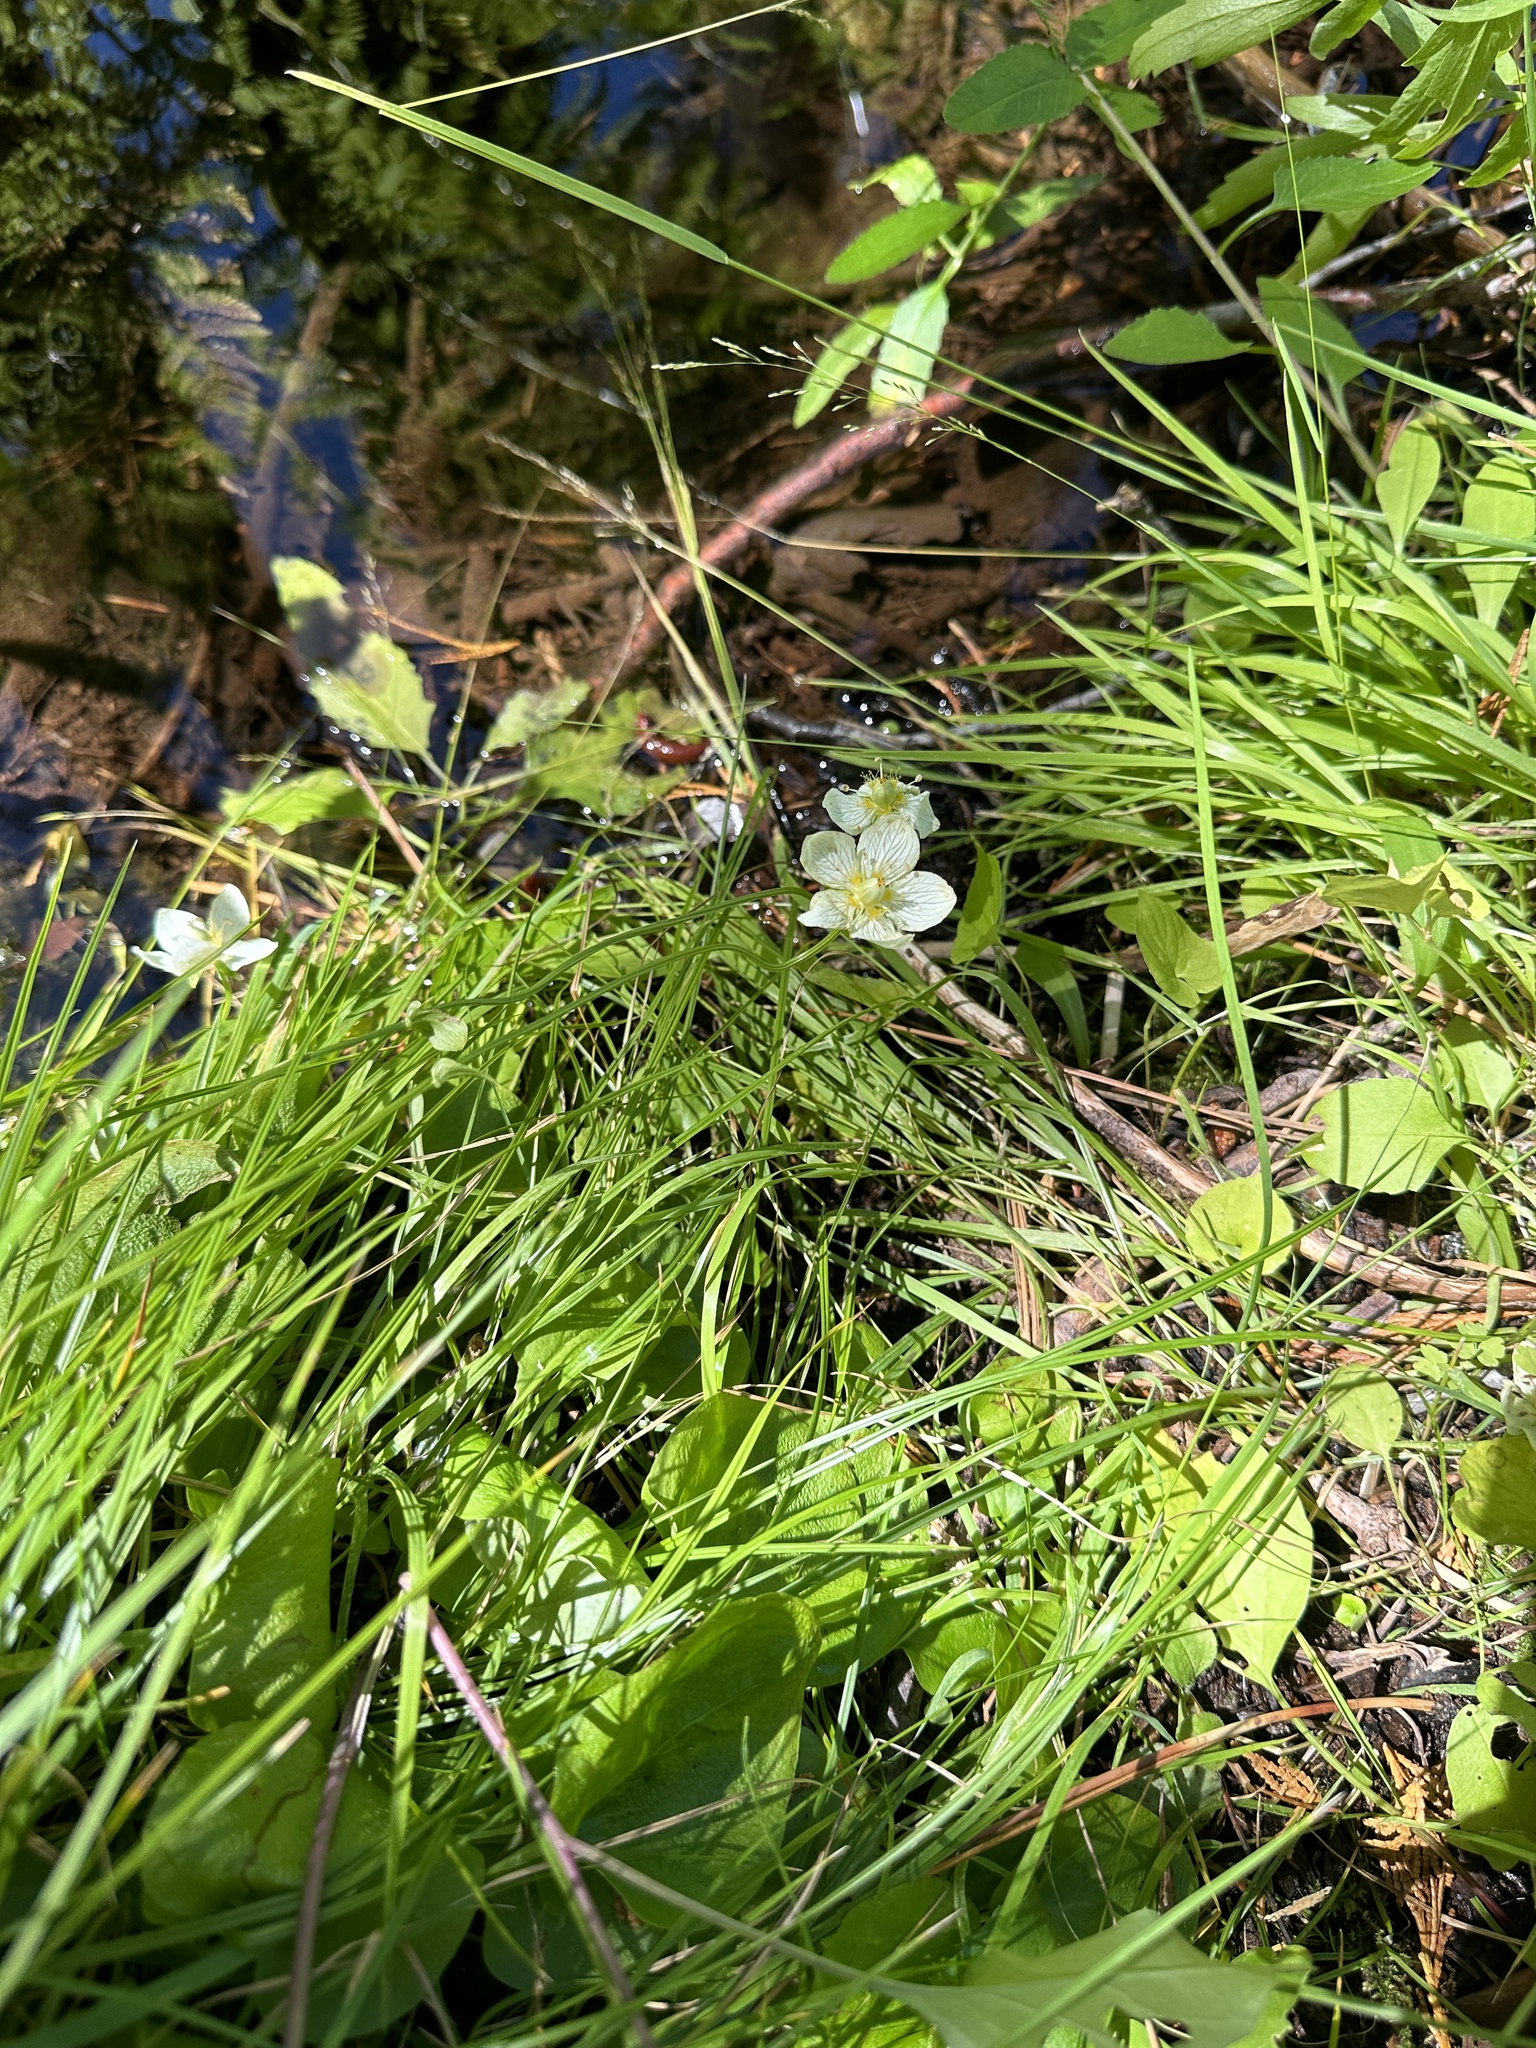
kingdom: Plantae
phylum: Tracheophyta
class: Magnoliopsida
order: Celastrales
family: Parnassiaceae
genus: Parnassia
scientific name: Parnassia palustris
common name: Grass-of-parnassus
